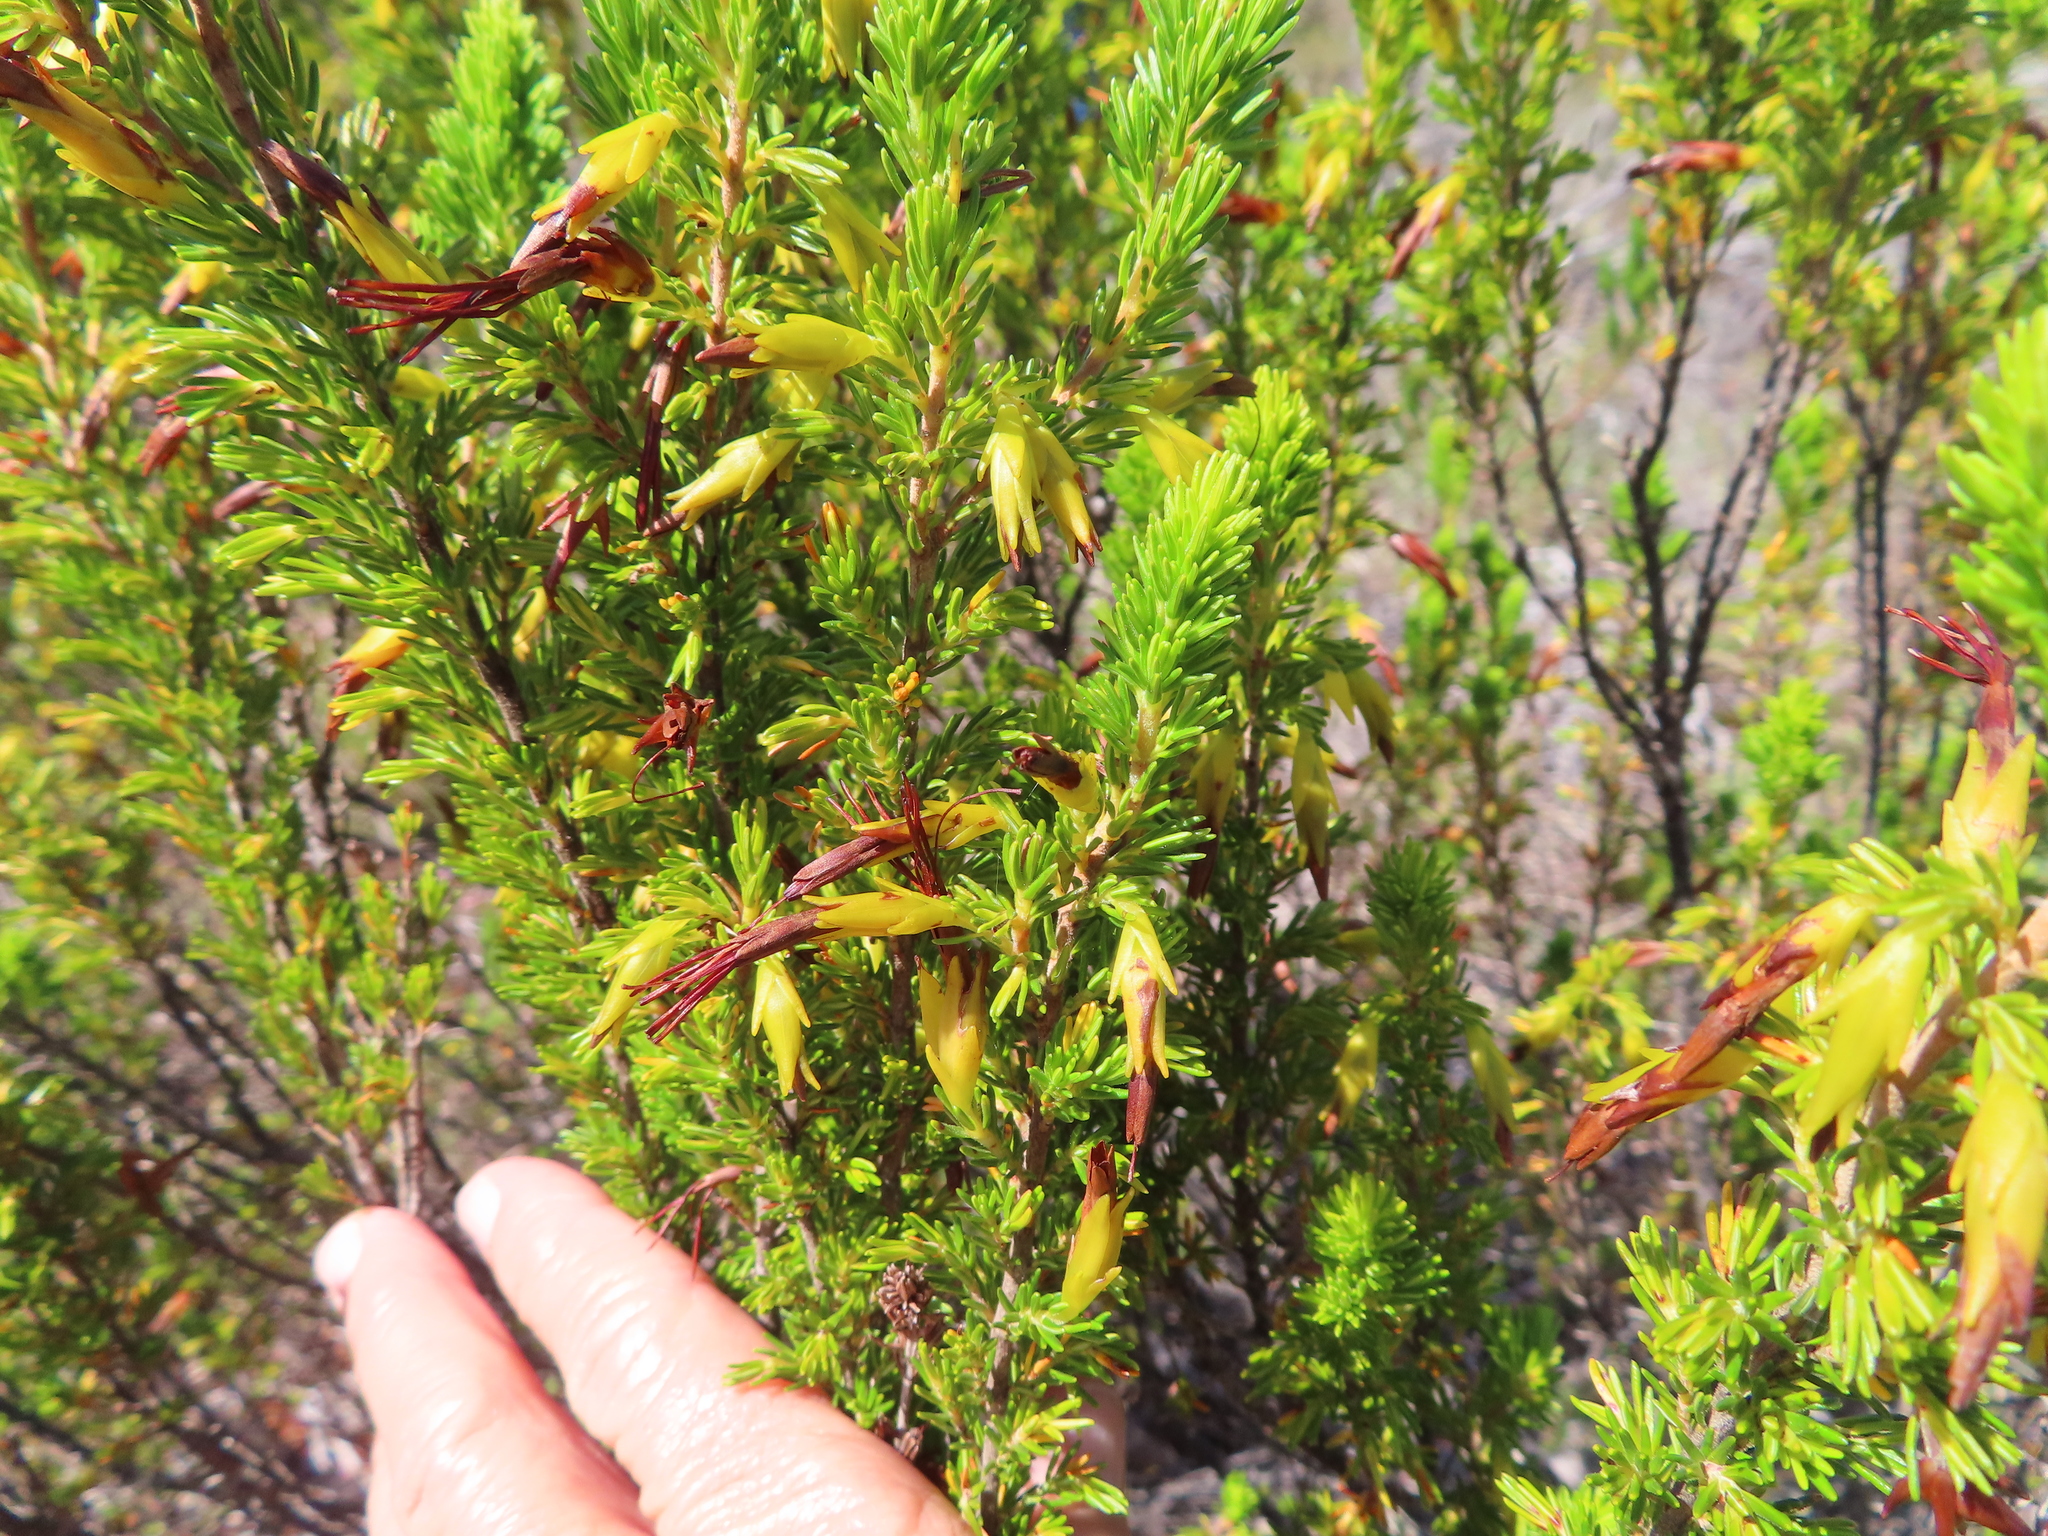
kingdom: Plantae
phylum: Tracheophyta
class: Magnoliopsida
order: Ericales
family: Ericaceae
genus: Erica
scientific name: Erica melastoma
